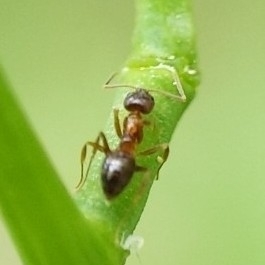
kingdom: Animalia
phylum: Arthropoda
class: Insecta
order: Hymenoptera
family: Formicidae
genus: Paratrechina
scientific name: Paratrechina flavipes
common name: Eastern asian formicine ant
